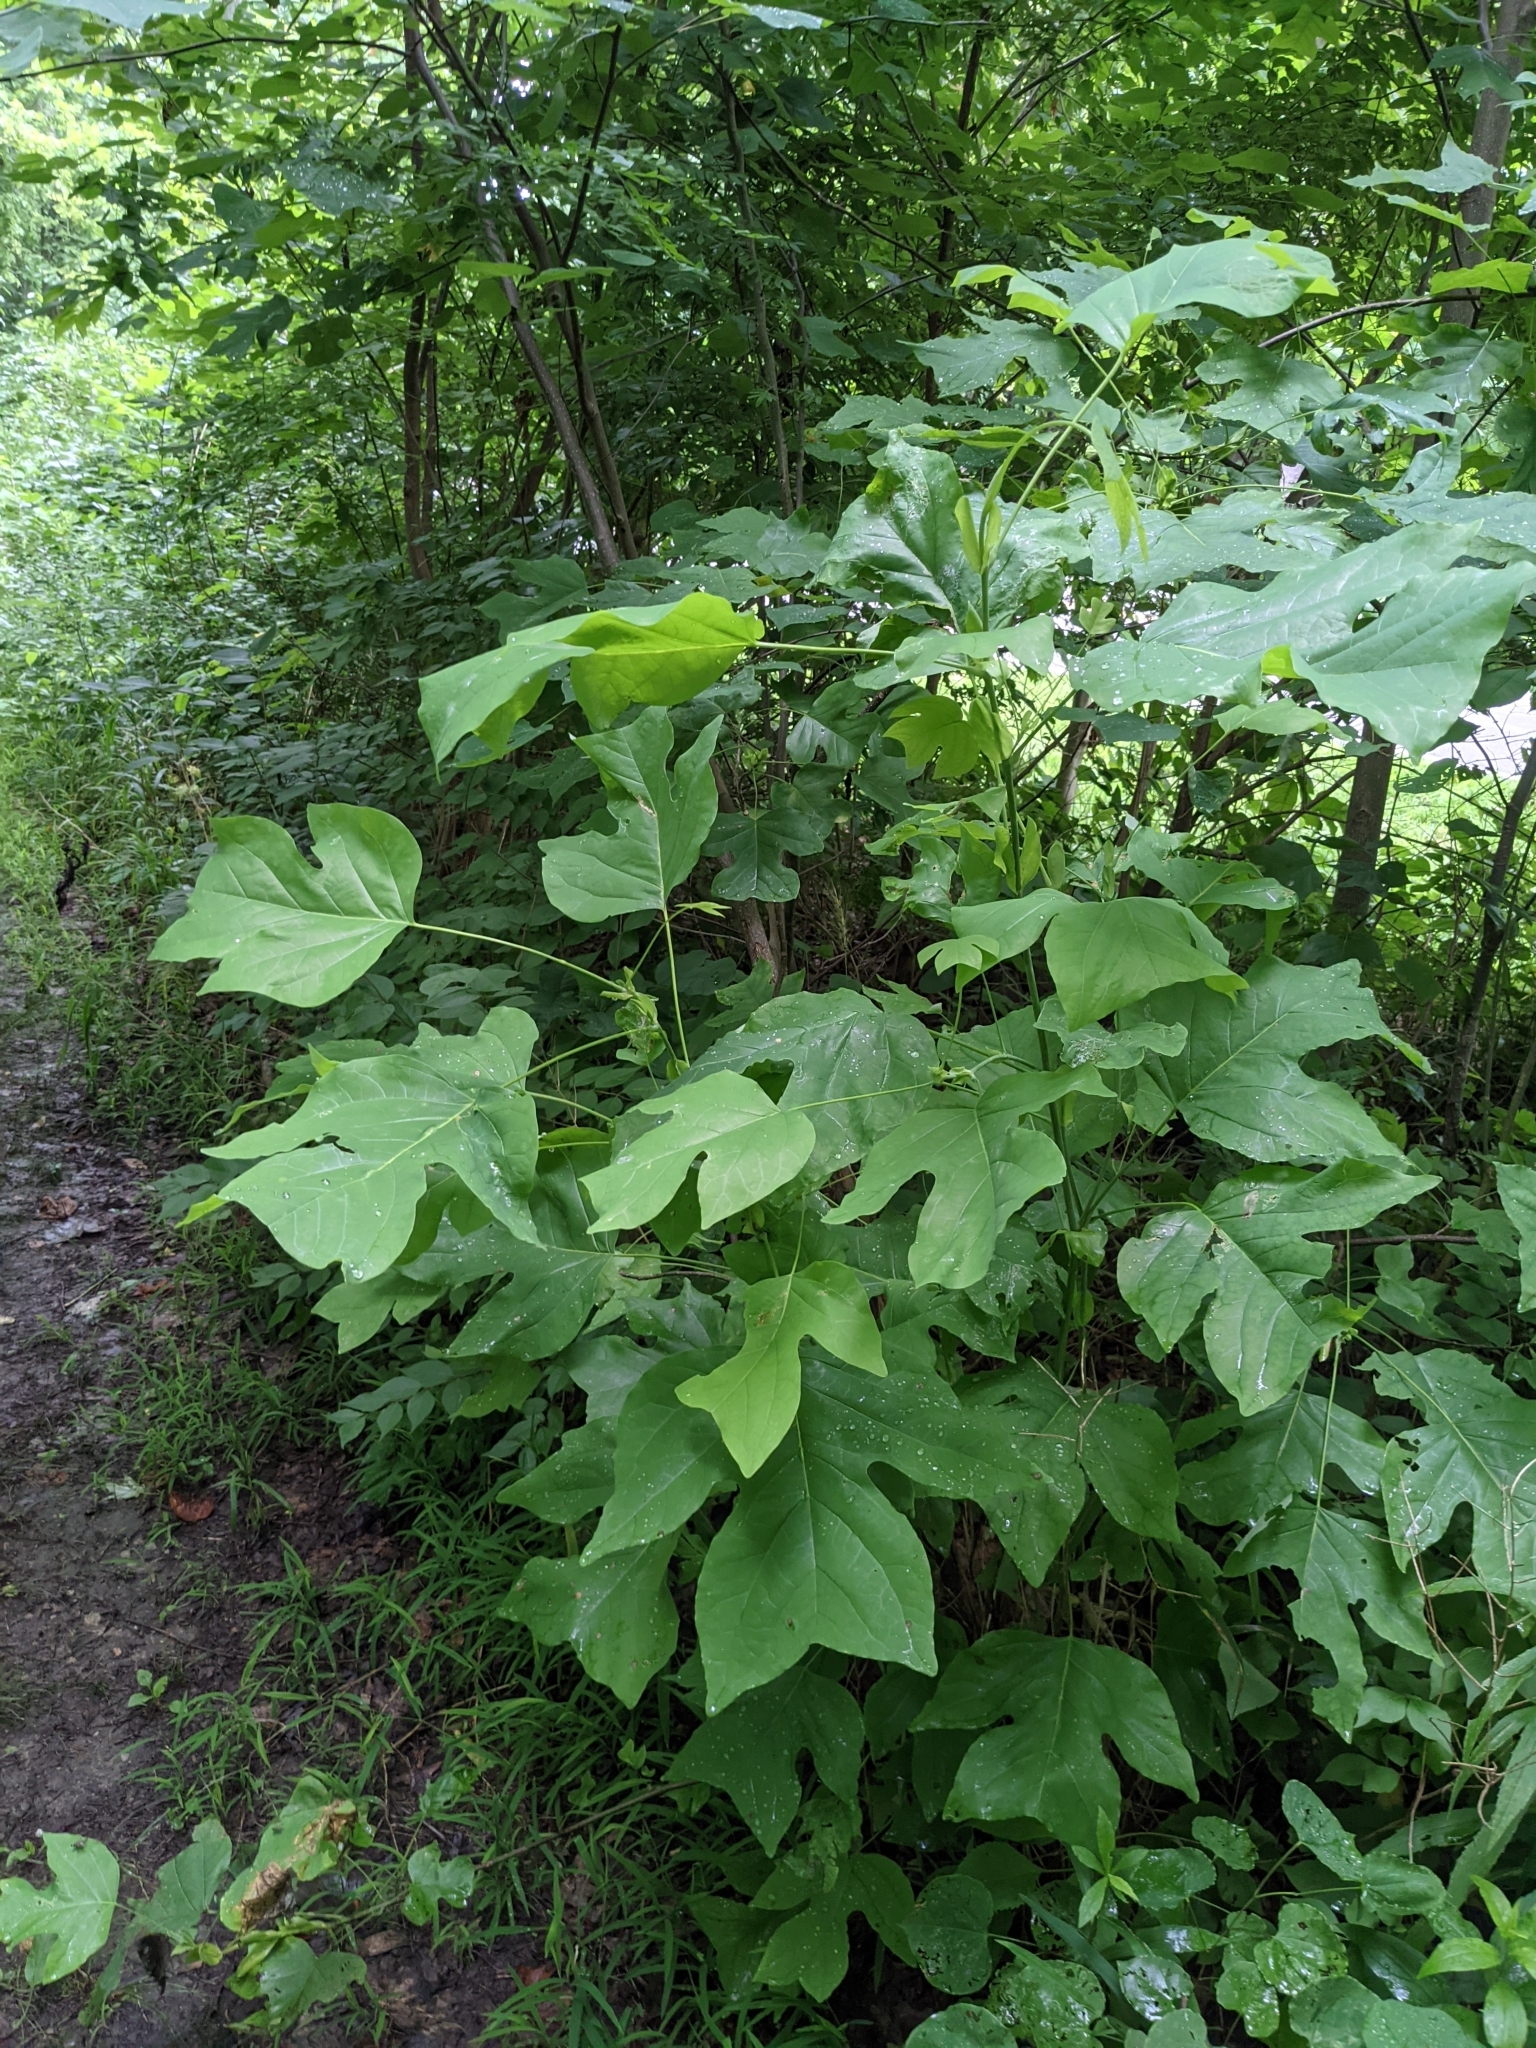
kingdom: Plantae
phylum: Tracheophyta
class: Magnoliopsida
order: Magnoliales
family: Magnoliaceae
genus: Liriodendron
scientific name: Liriodendron tulipifera
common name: Tulip tree
